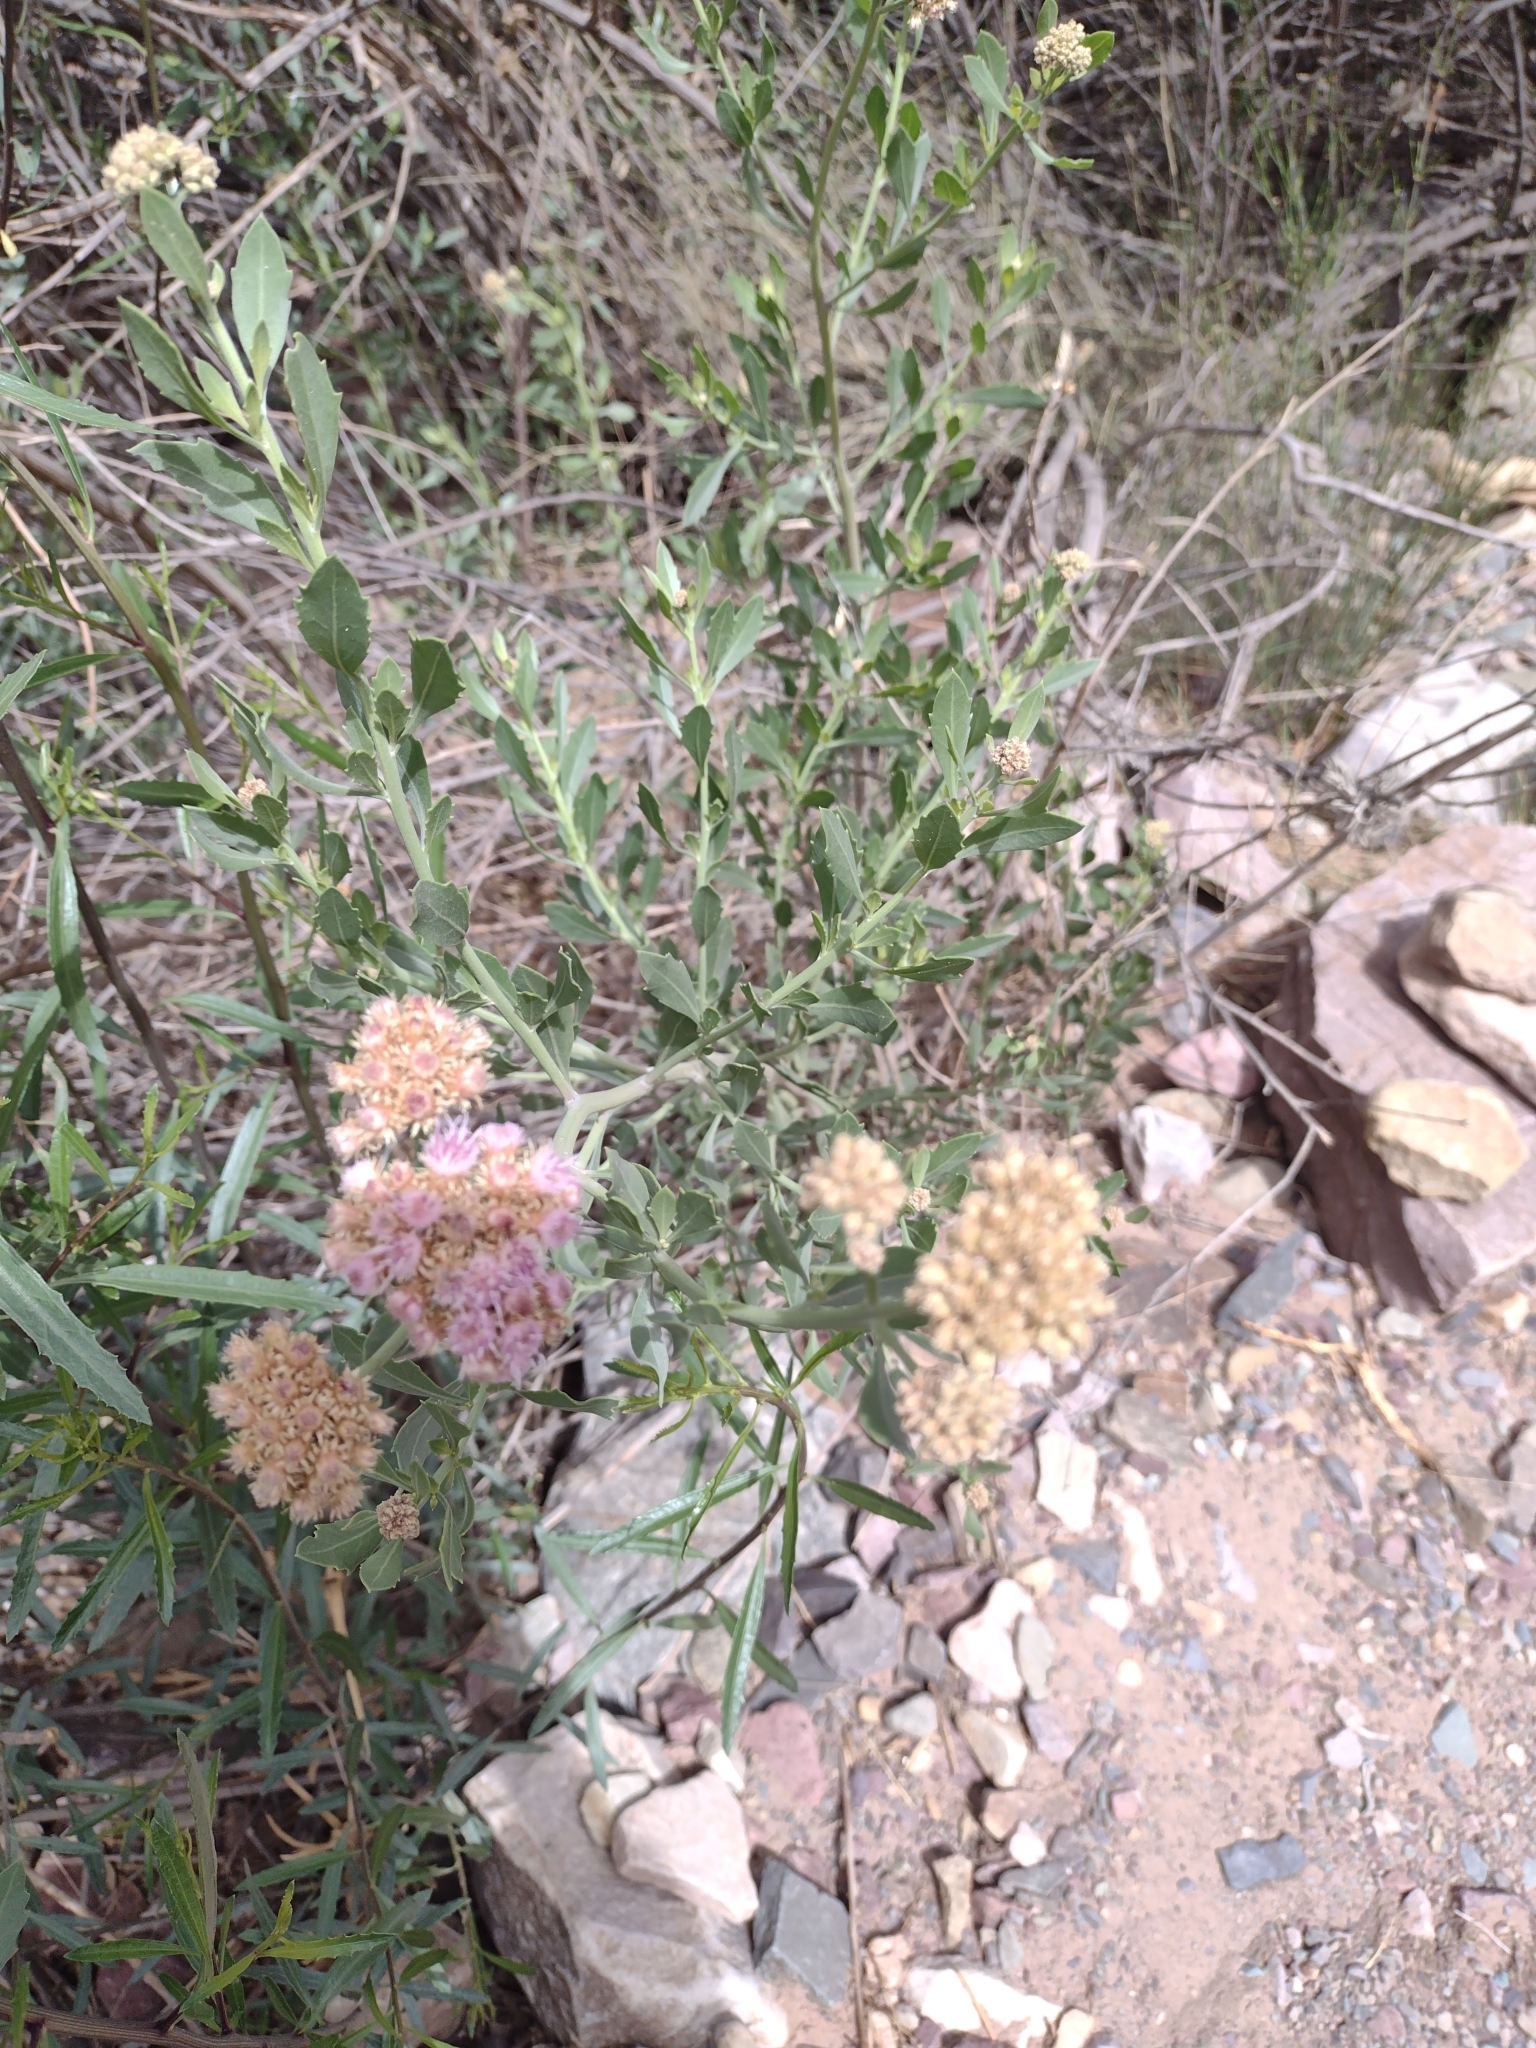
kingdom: Plantae
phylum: Tracheophyta
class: Magnoliopsida
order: Asterales
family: Asteraceae
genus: Tessaria
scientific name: Tessaria absinthioides
